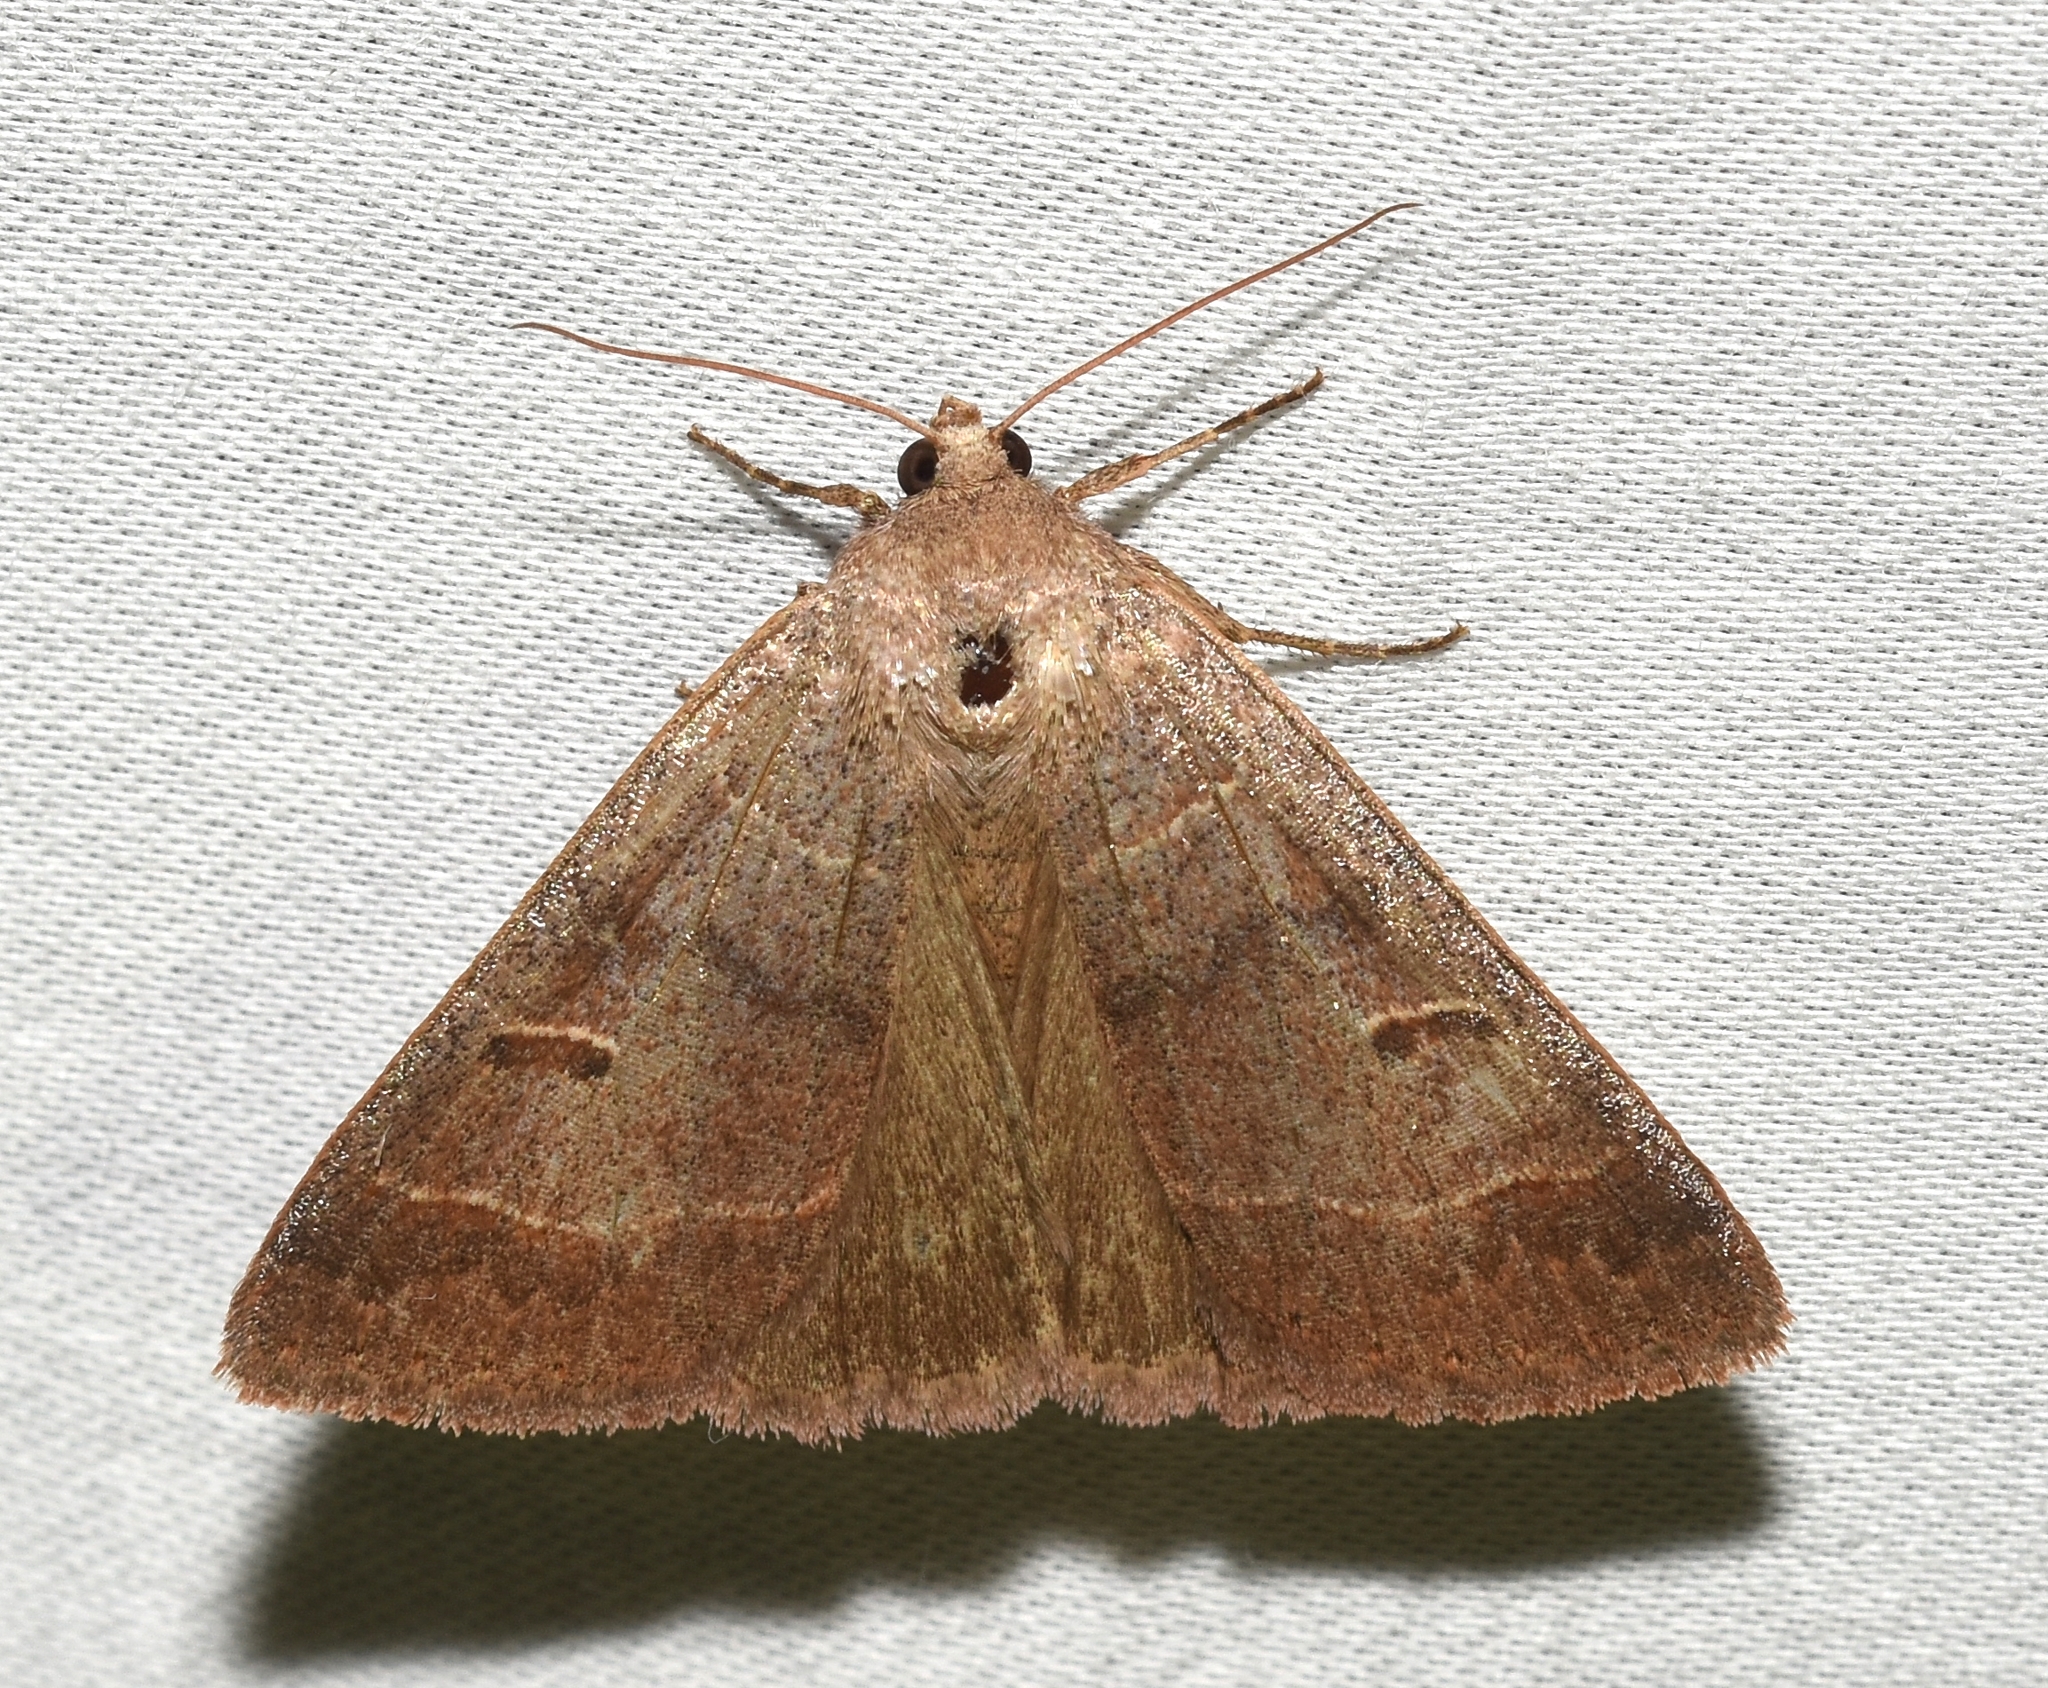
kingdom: Animalia
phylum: Arthropoda
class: Insecta
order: Lepidoptera
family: Erebidae
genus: Phoberia
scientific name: Phoberia atomaris
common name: Common oak moth
